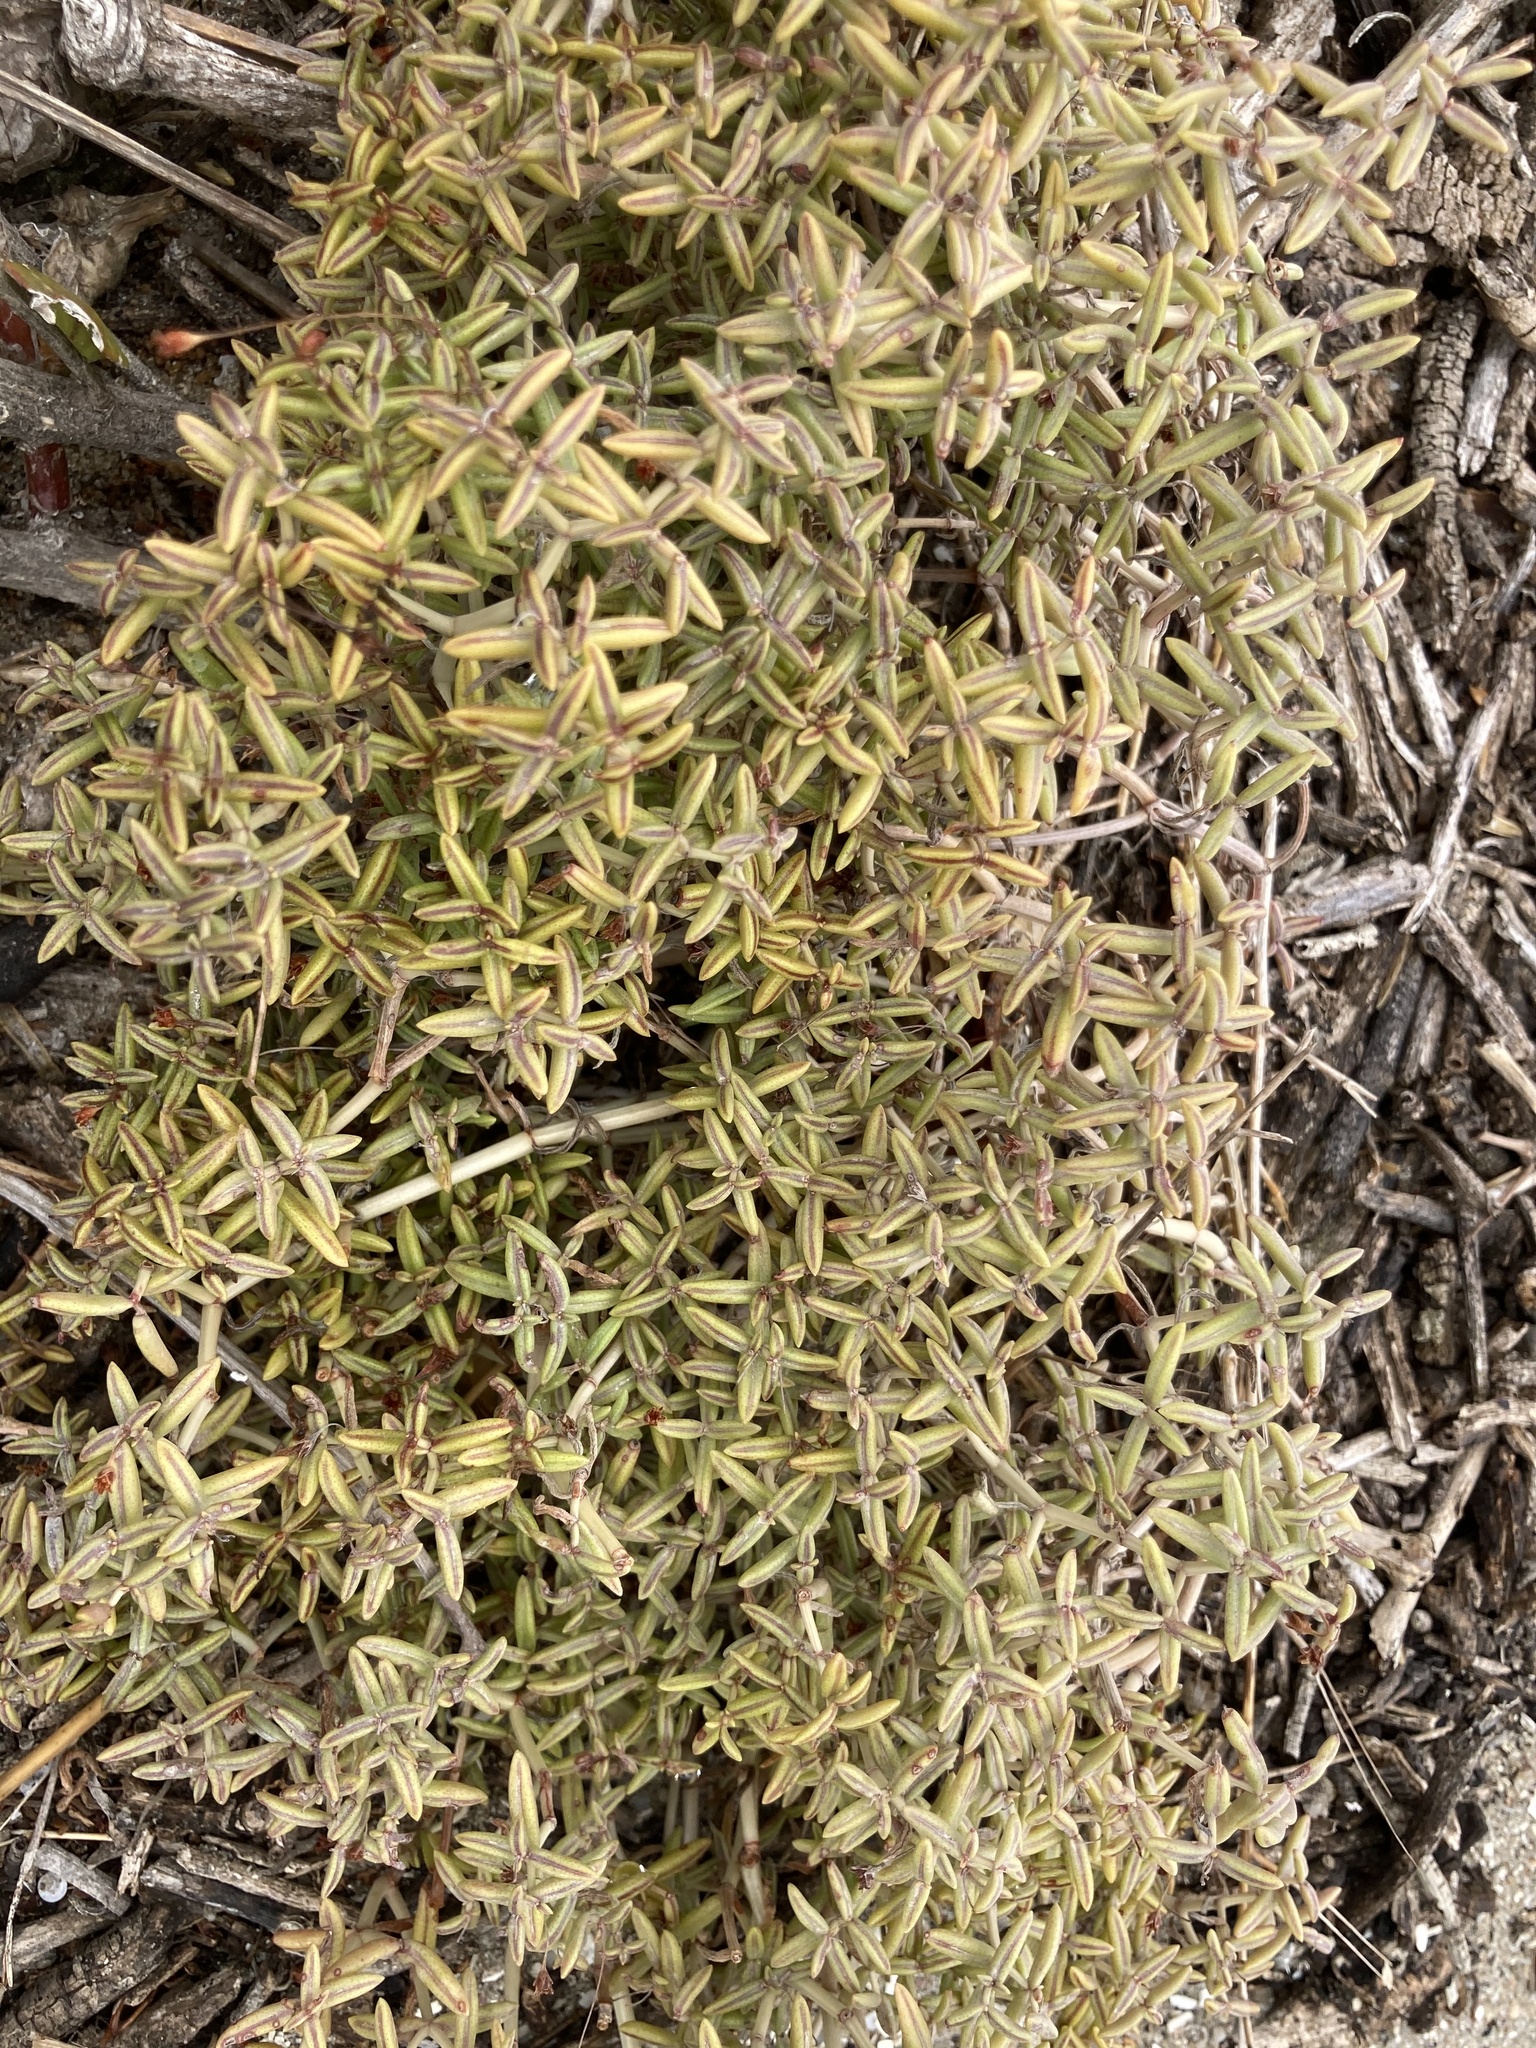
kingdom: Plantae
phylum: Tracheophyta
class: Magnoliopsida
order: Saxifragales
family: Crassulaceae
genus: Crassula
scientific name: Crassula expansa
